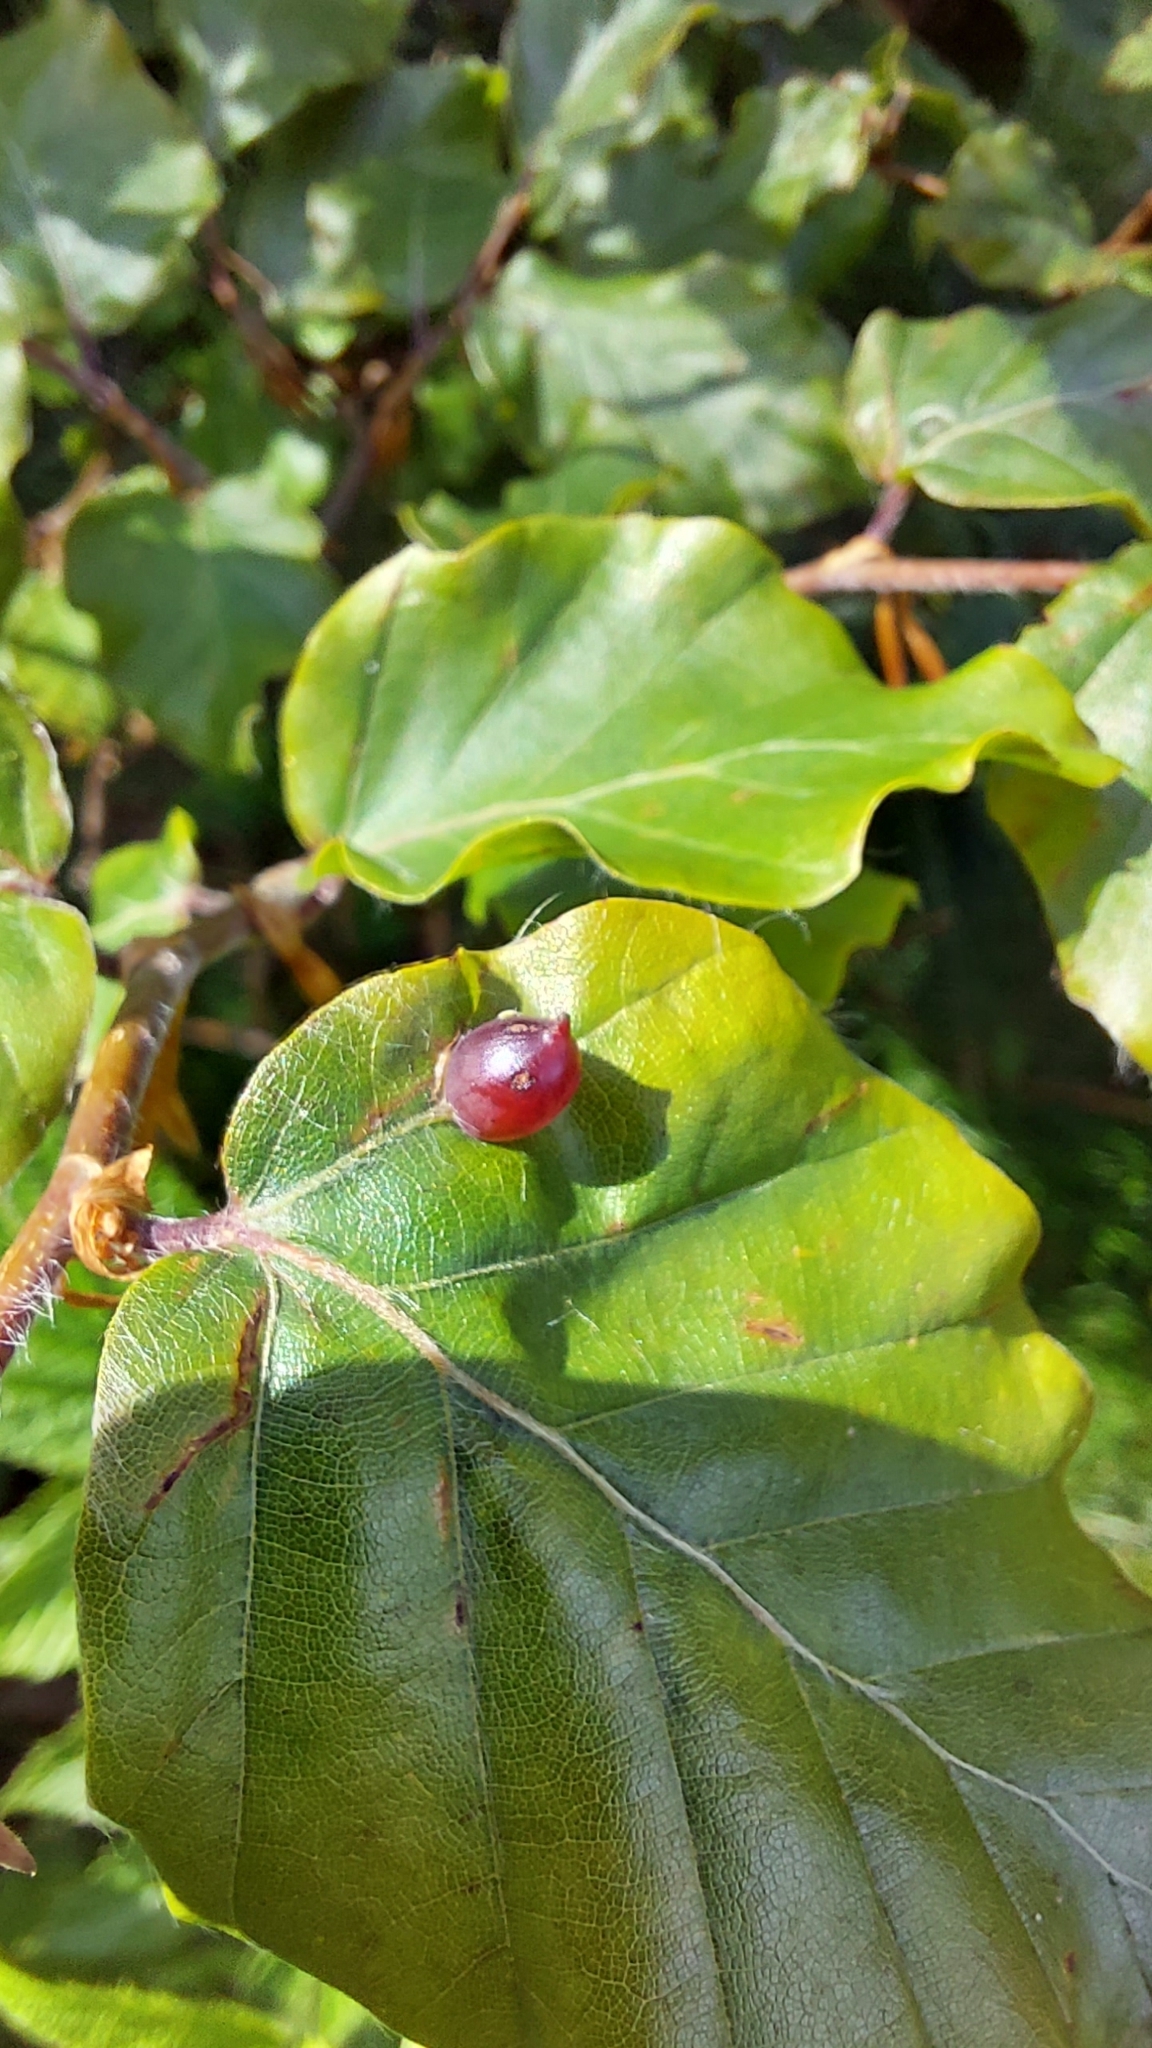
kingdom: Animalia
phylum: Arthropoda
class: Insecta
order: Diptera
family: Cecidomyiidae
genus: Mikiola
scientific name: Mikiola fagi
